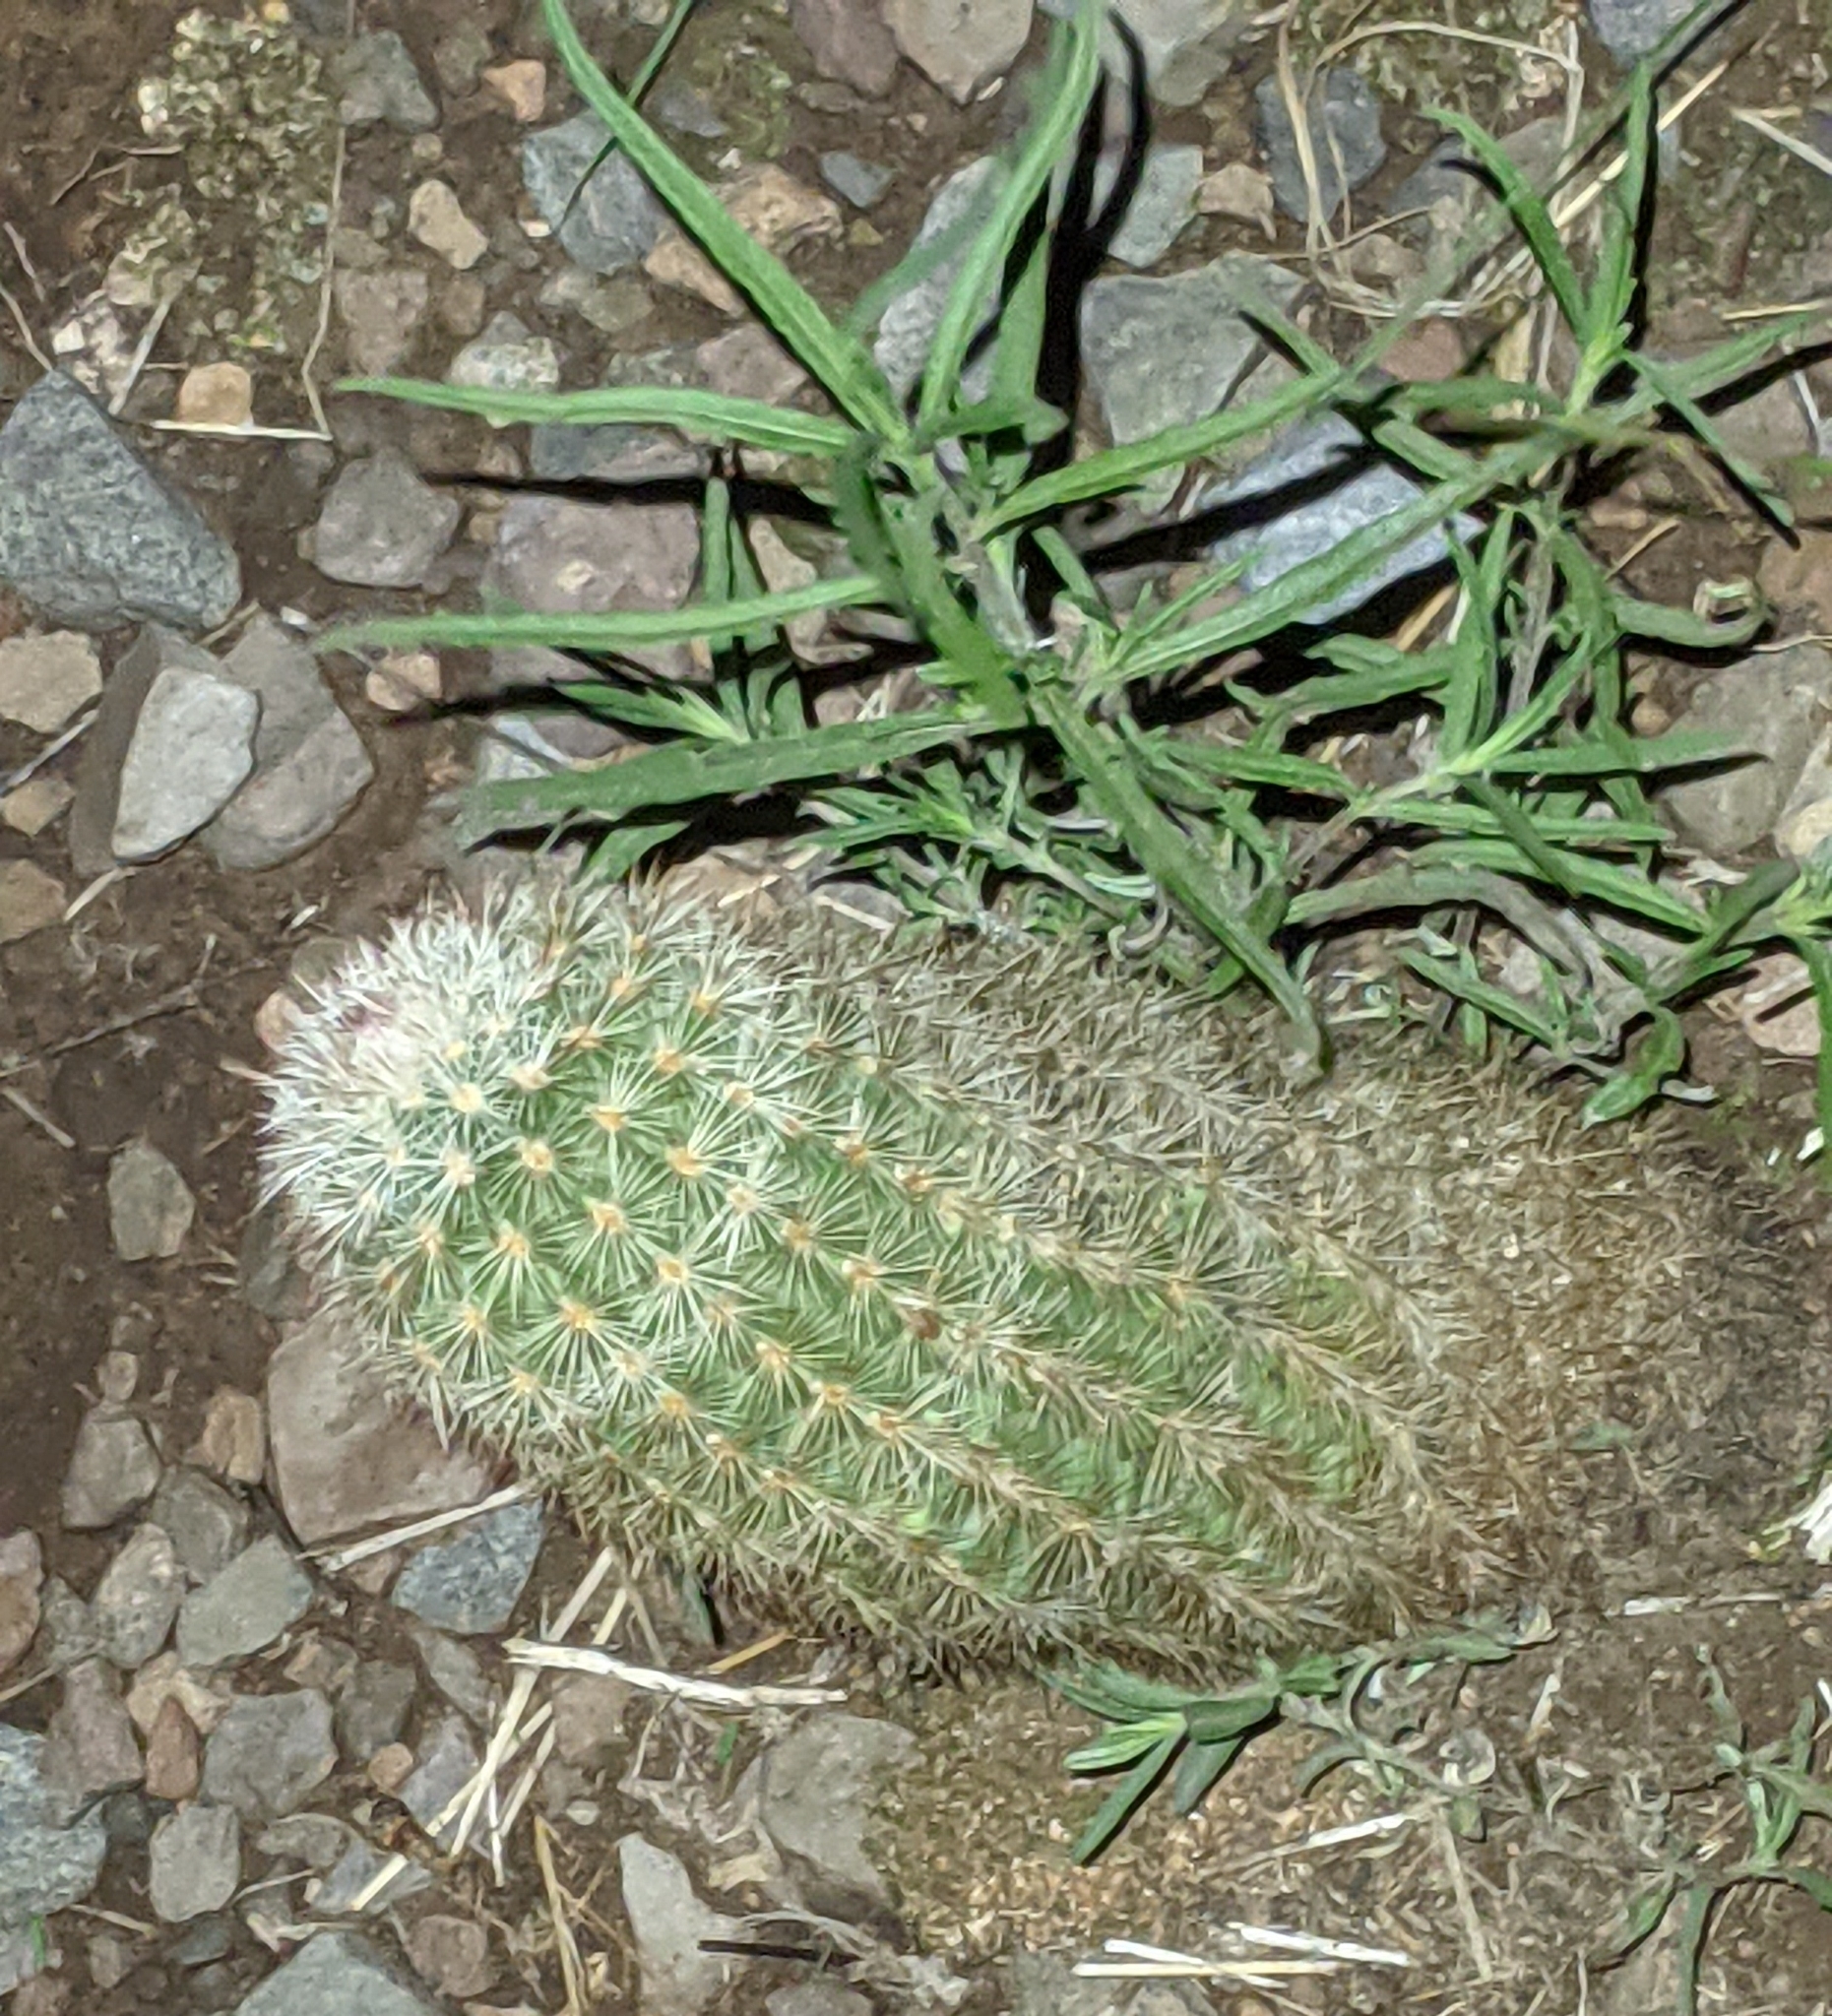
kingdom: Plantae
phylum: Tracheophyta
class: Magnoliopsida
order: Caryophyllales
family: Cactaceae
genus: Echinocereus
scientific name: Echinocereus russanthus
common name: Brownspine hedgehog cactus
